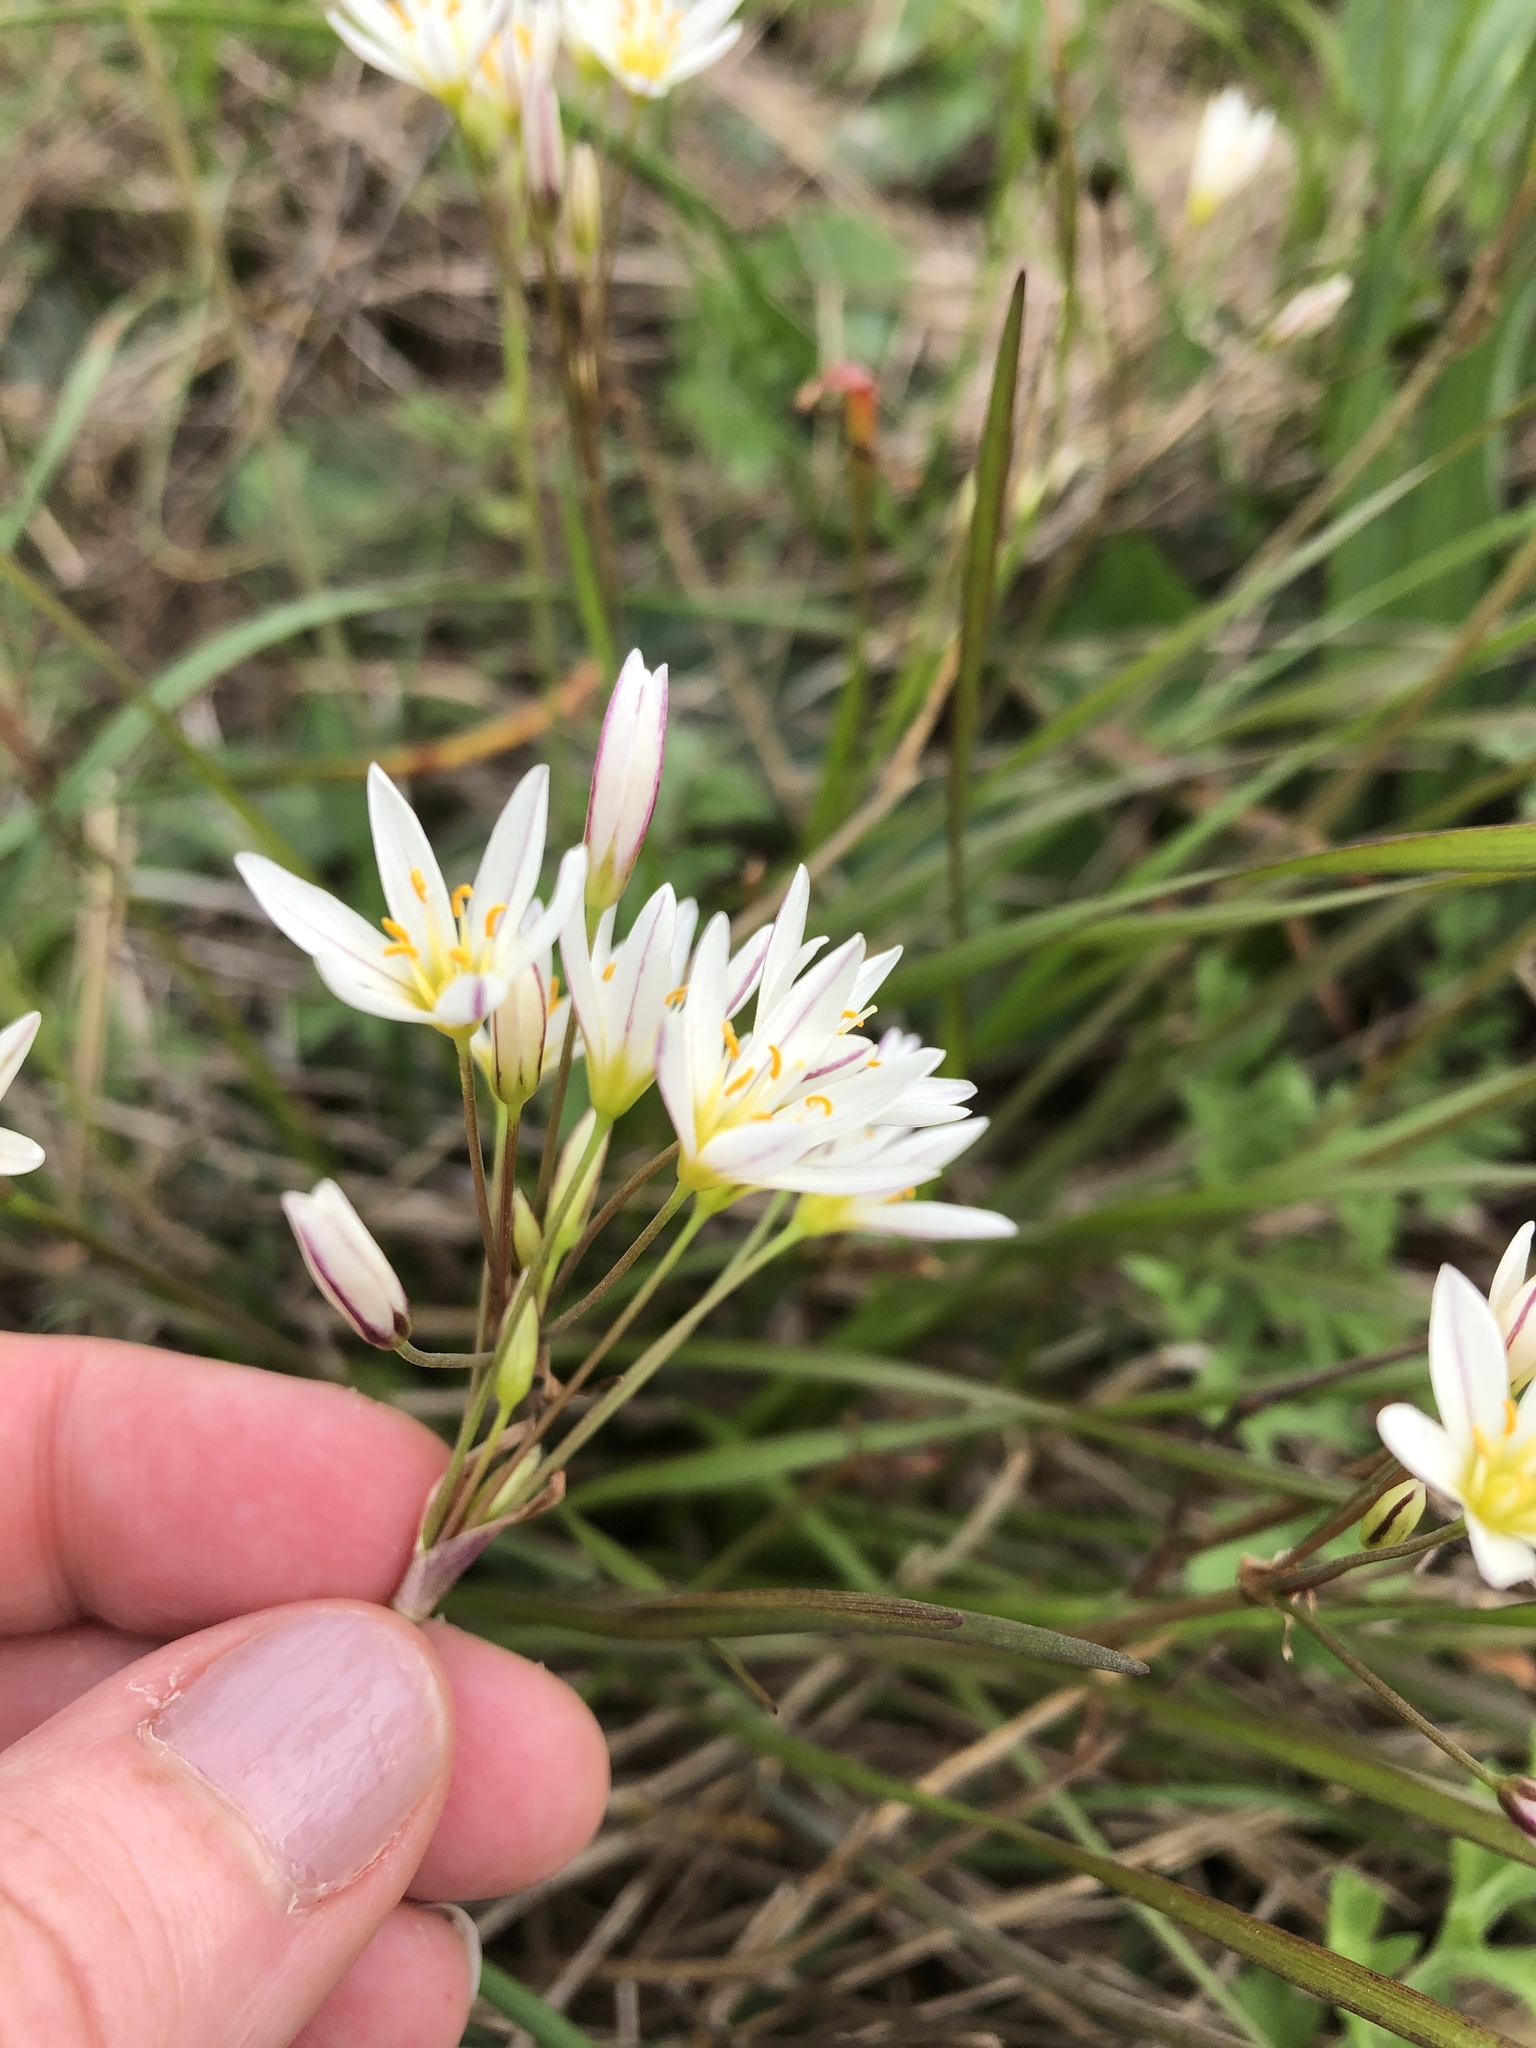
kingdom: Plantae
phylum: Tracheophyta
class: Liliopsida
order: Asparagales
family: Amaryllidaceae
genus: Nothoscordum
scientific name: Nothoscordum bivalve
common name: Crow-poison
